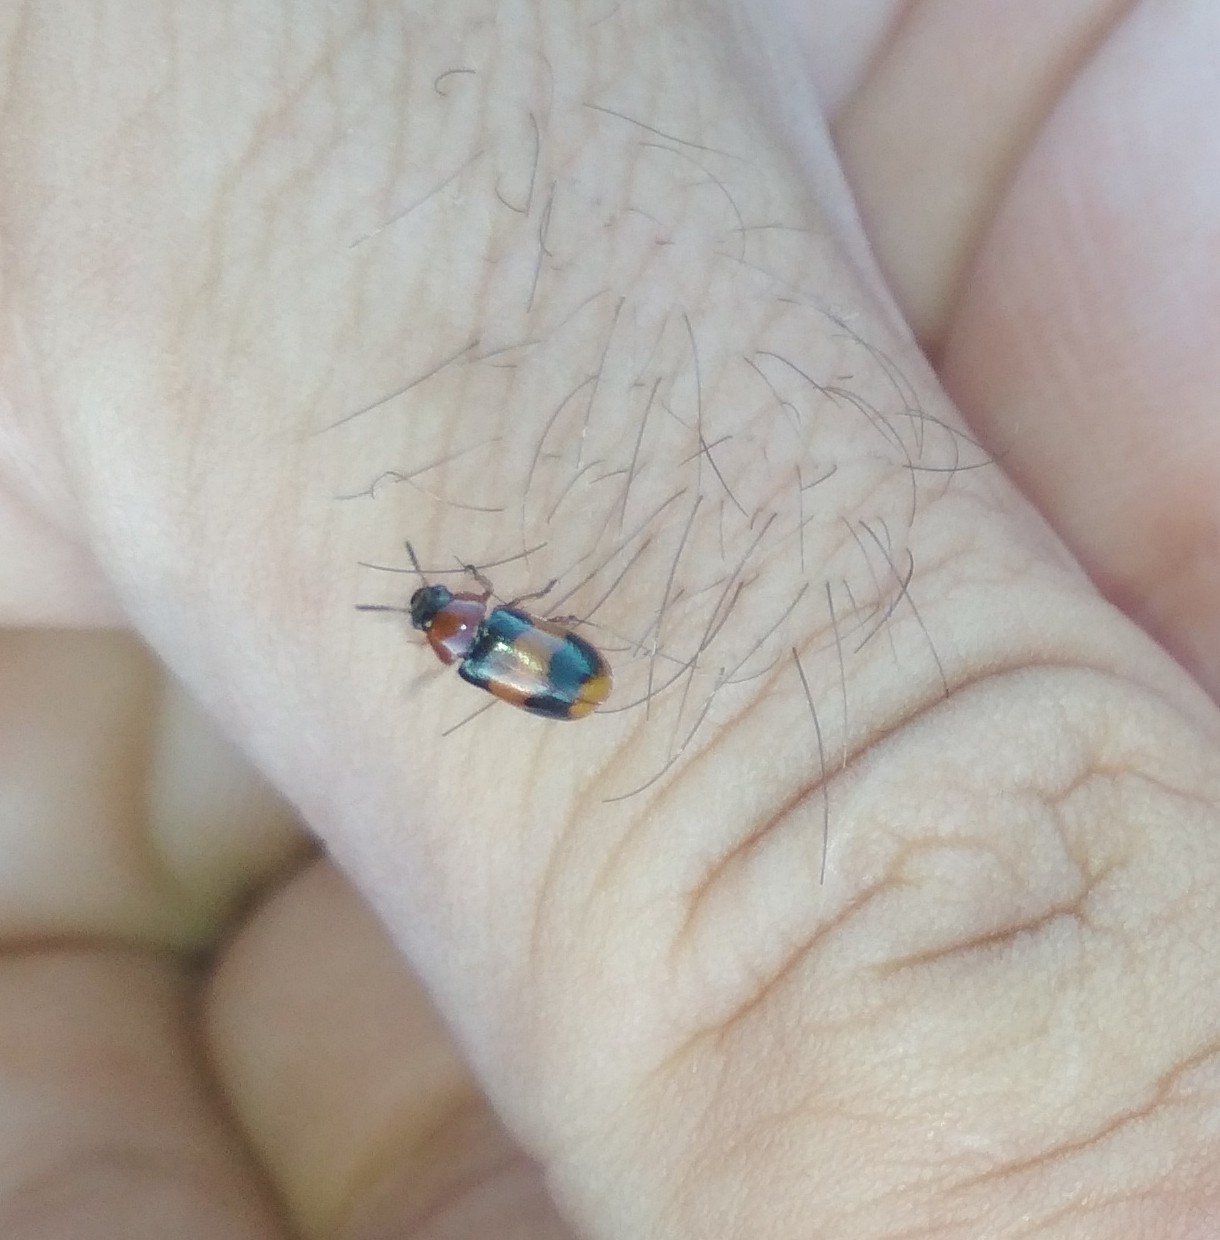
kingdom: Animalia
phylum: Arthropoda
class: Insecta
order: Coleoptera
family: Chrysomelidae
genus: Coptocephala
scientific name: Coptocephala unifasciata
